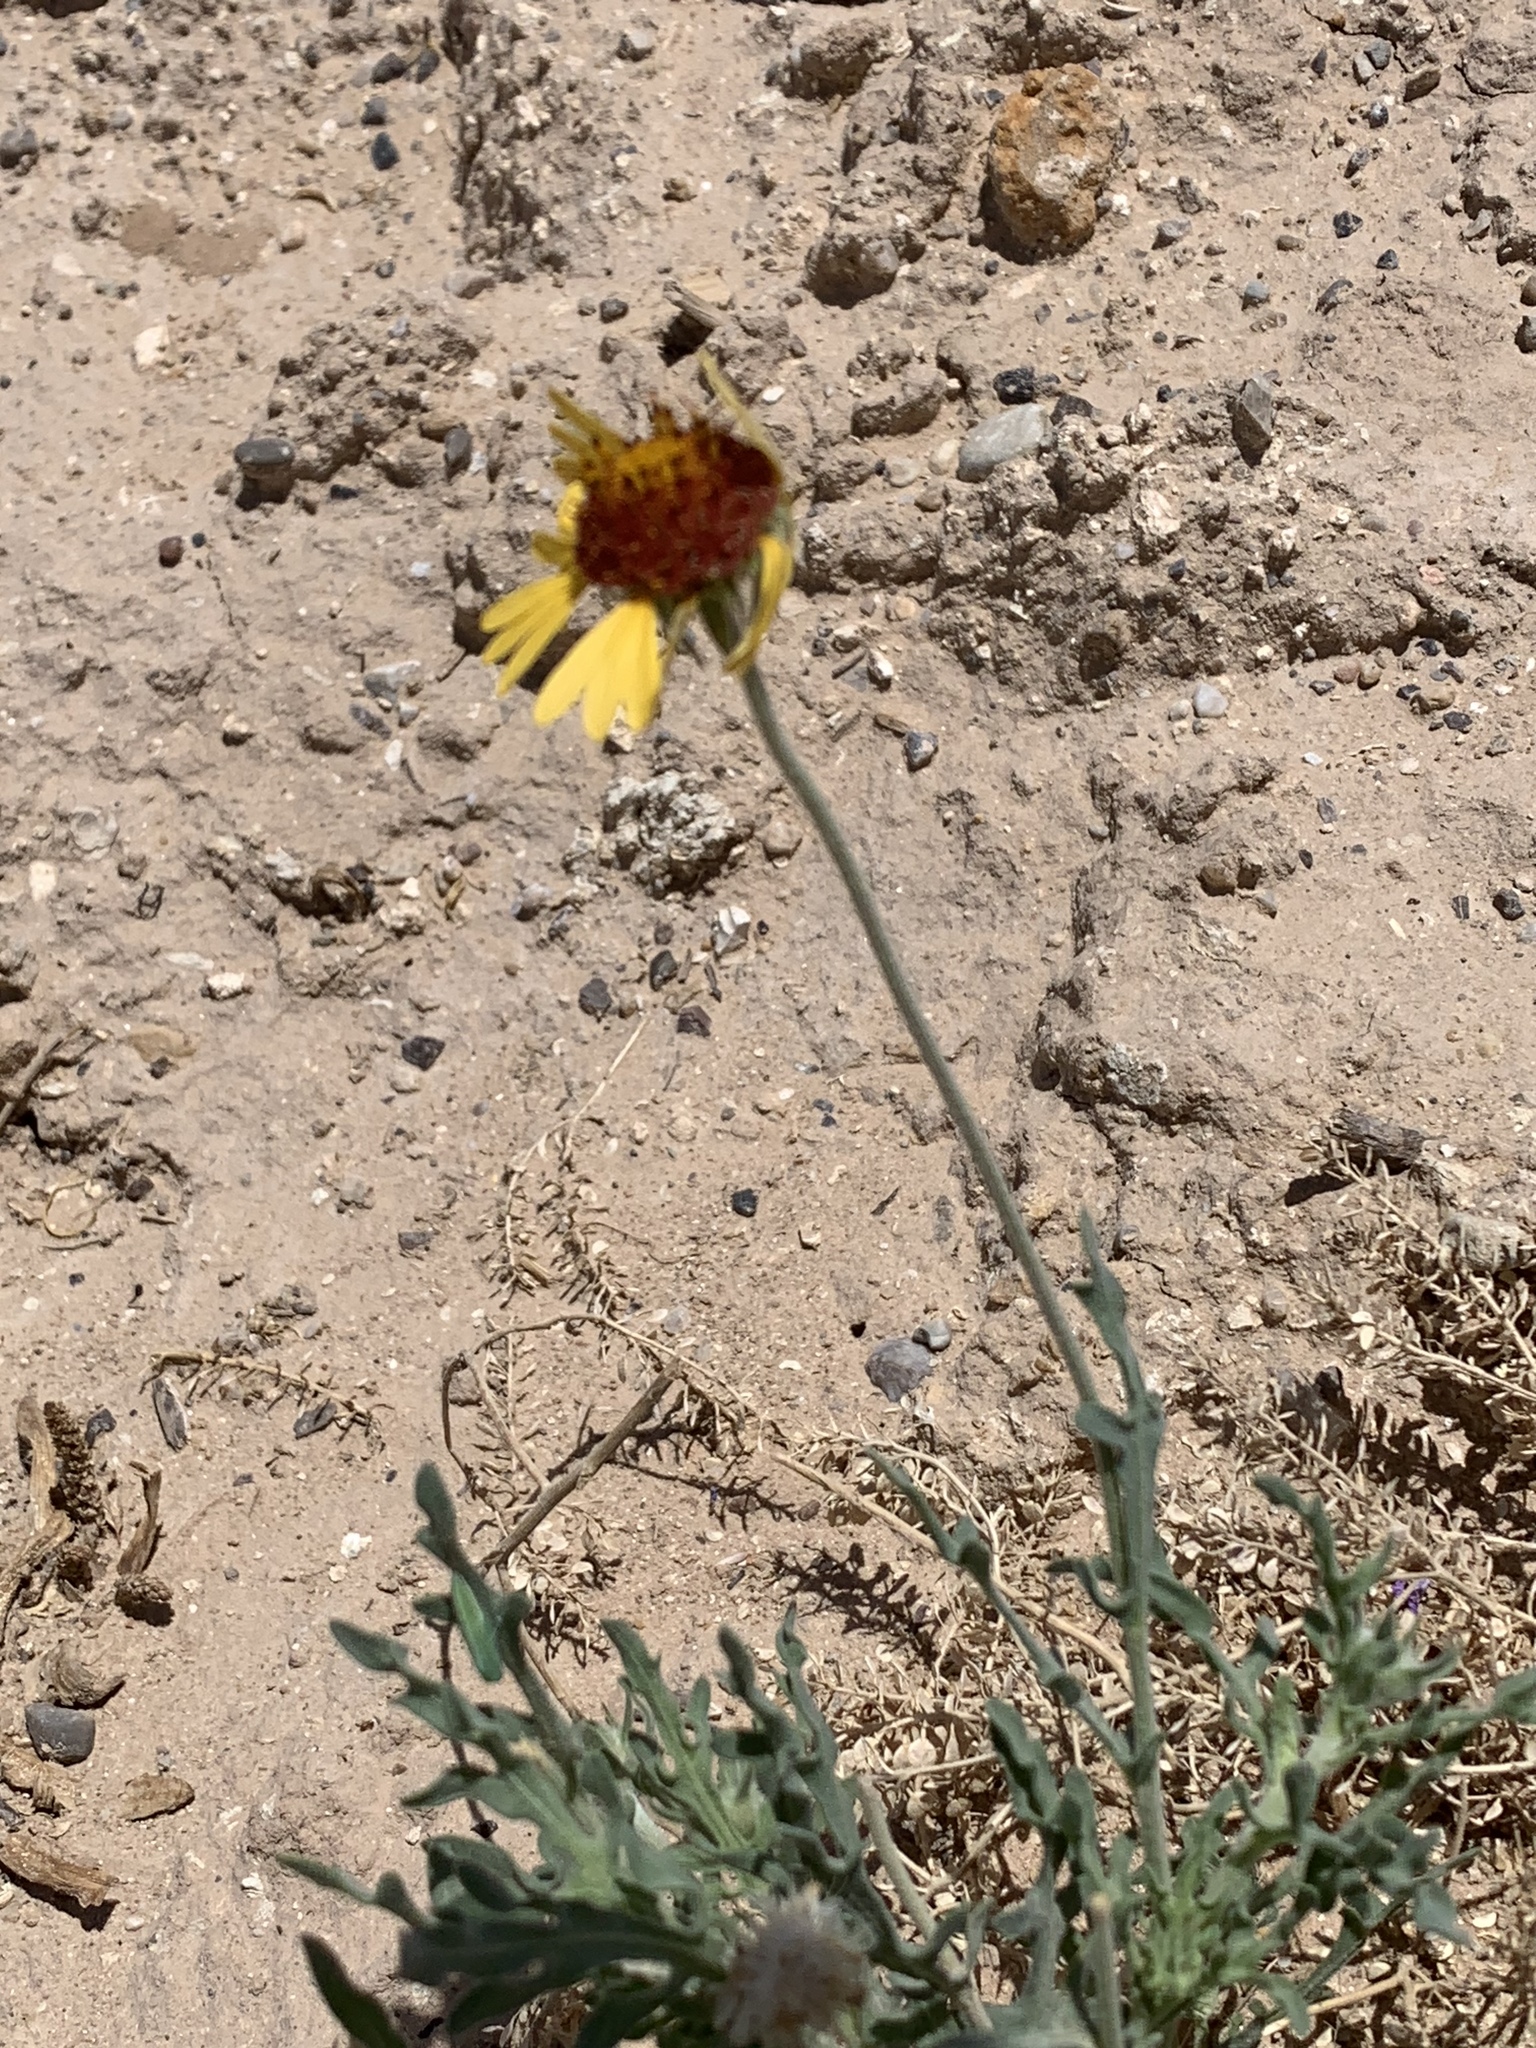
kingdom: Plantae
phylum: Tracheophyta
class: Magnoliopsida
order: Asterales
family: Asteraceae
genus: Gaillardia
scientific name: Gaillardia pinnatifida
